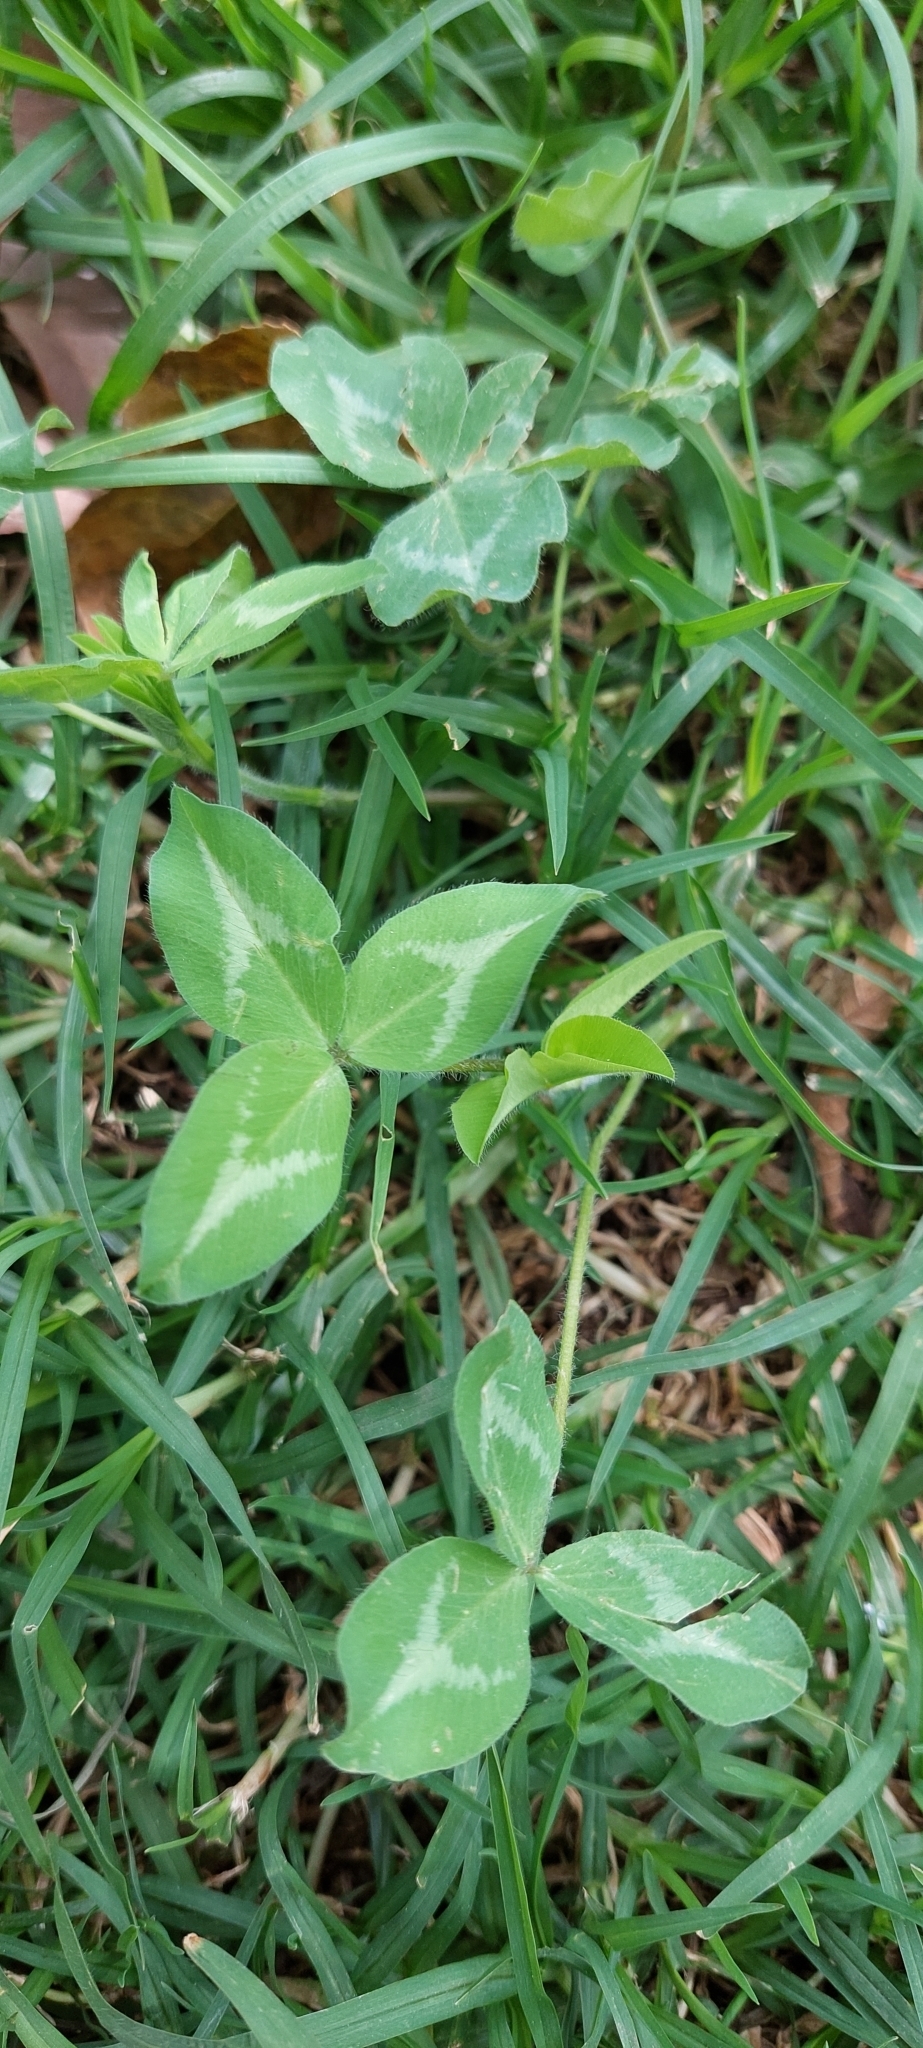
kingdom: Plantae
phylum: Tracheophyta
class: Magnoliopsida
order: Fabales
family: Fabaceae
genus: Trifolium
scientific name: Trifolium pratense
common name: Red clover
